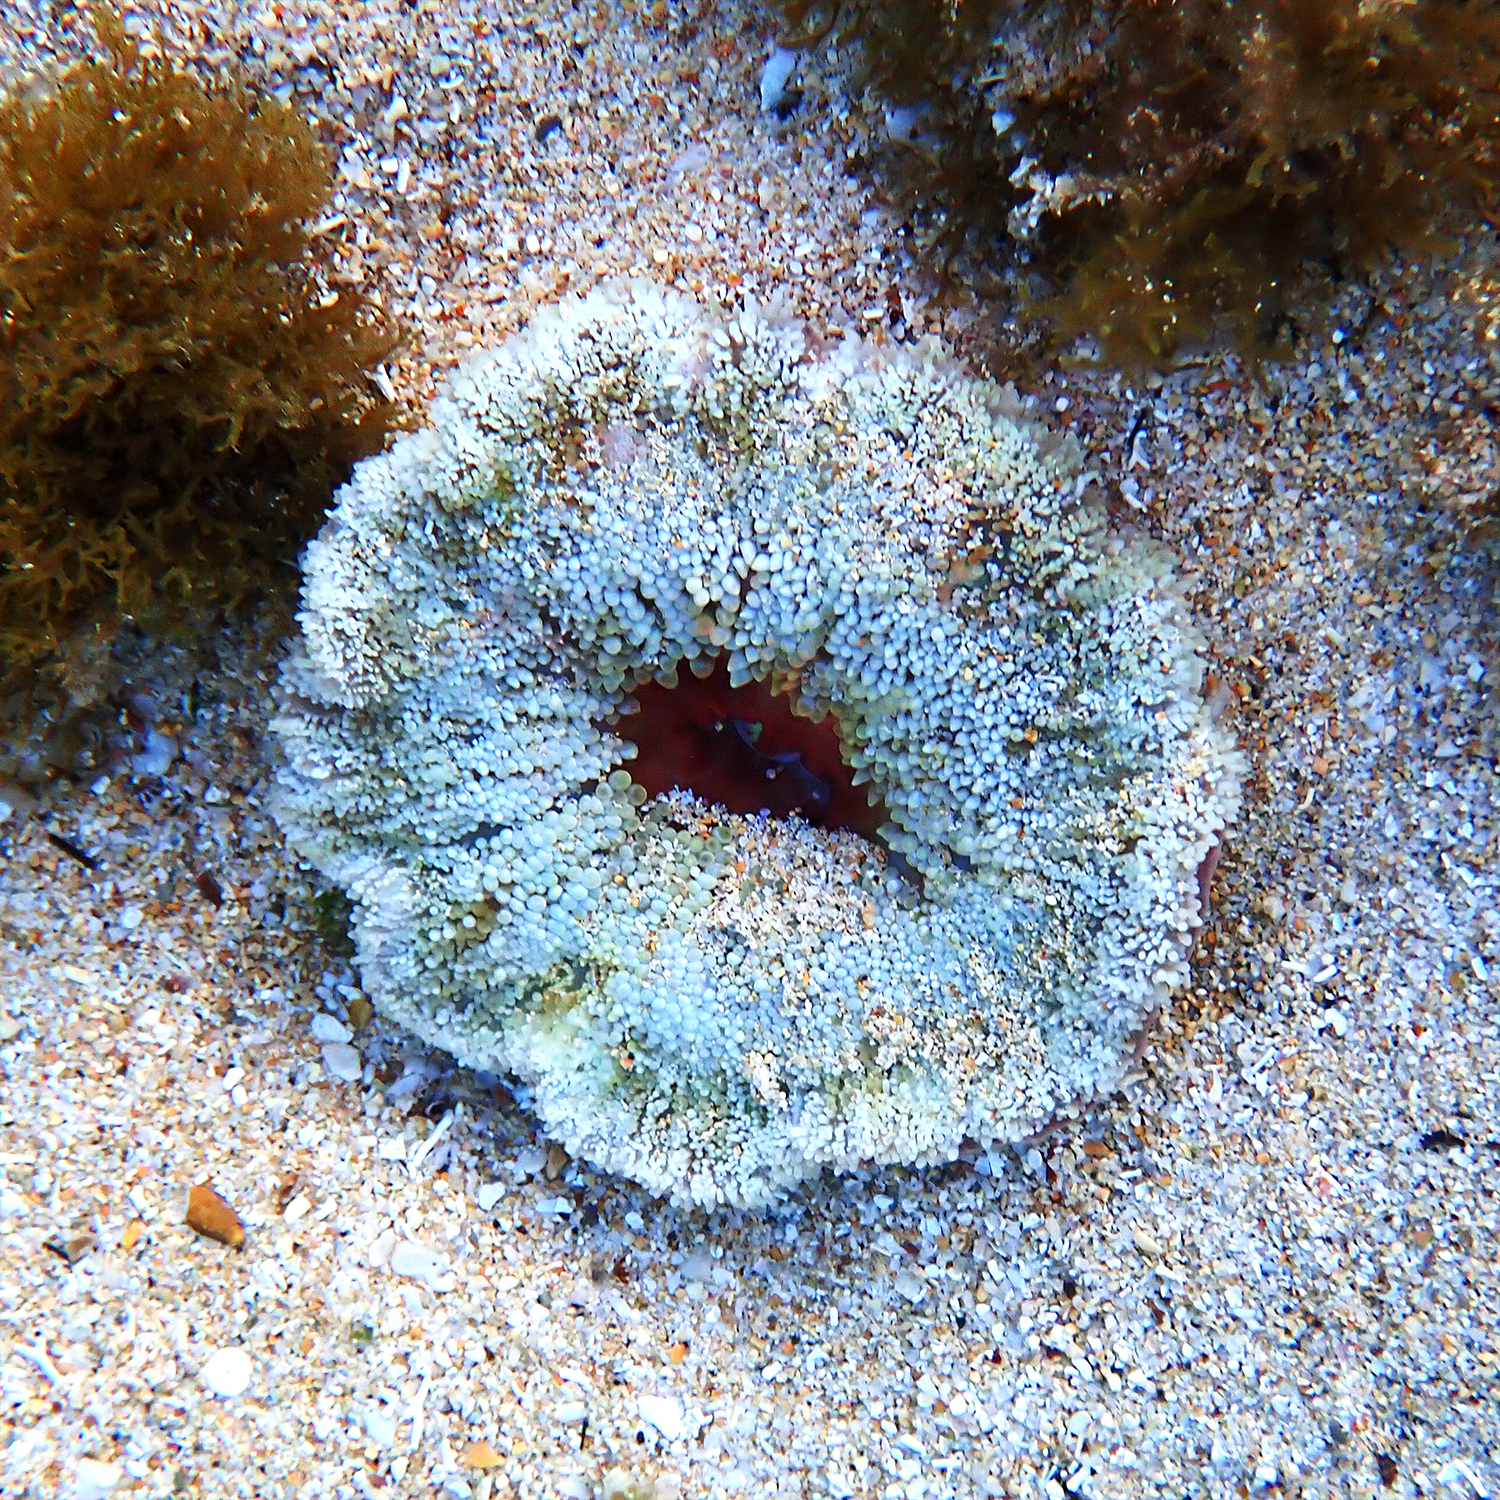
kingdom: Animalia
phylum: Cnidaria
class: Anthozoa
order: Actiniaria
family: Stichodactylidae
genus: Stichodactyla
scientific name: Stichodactyla tapetum
